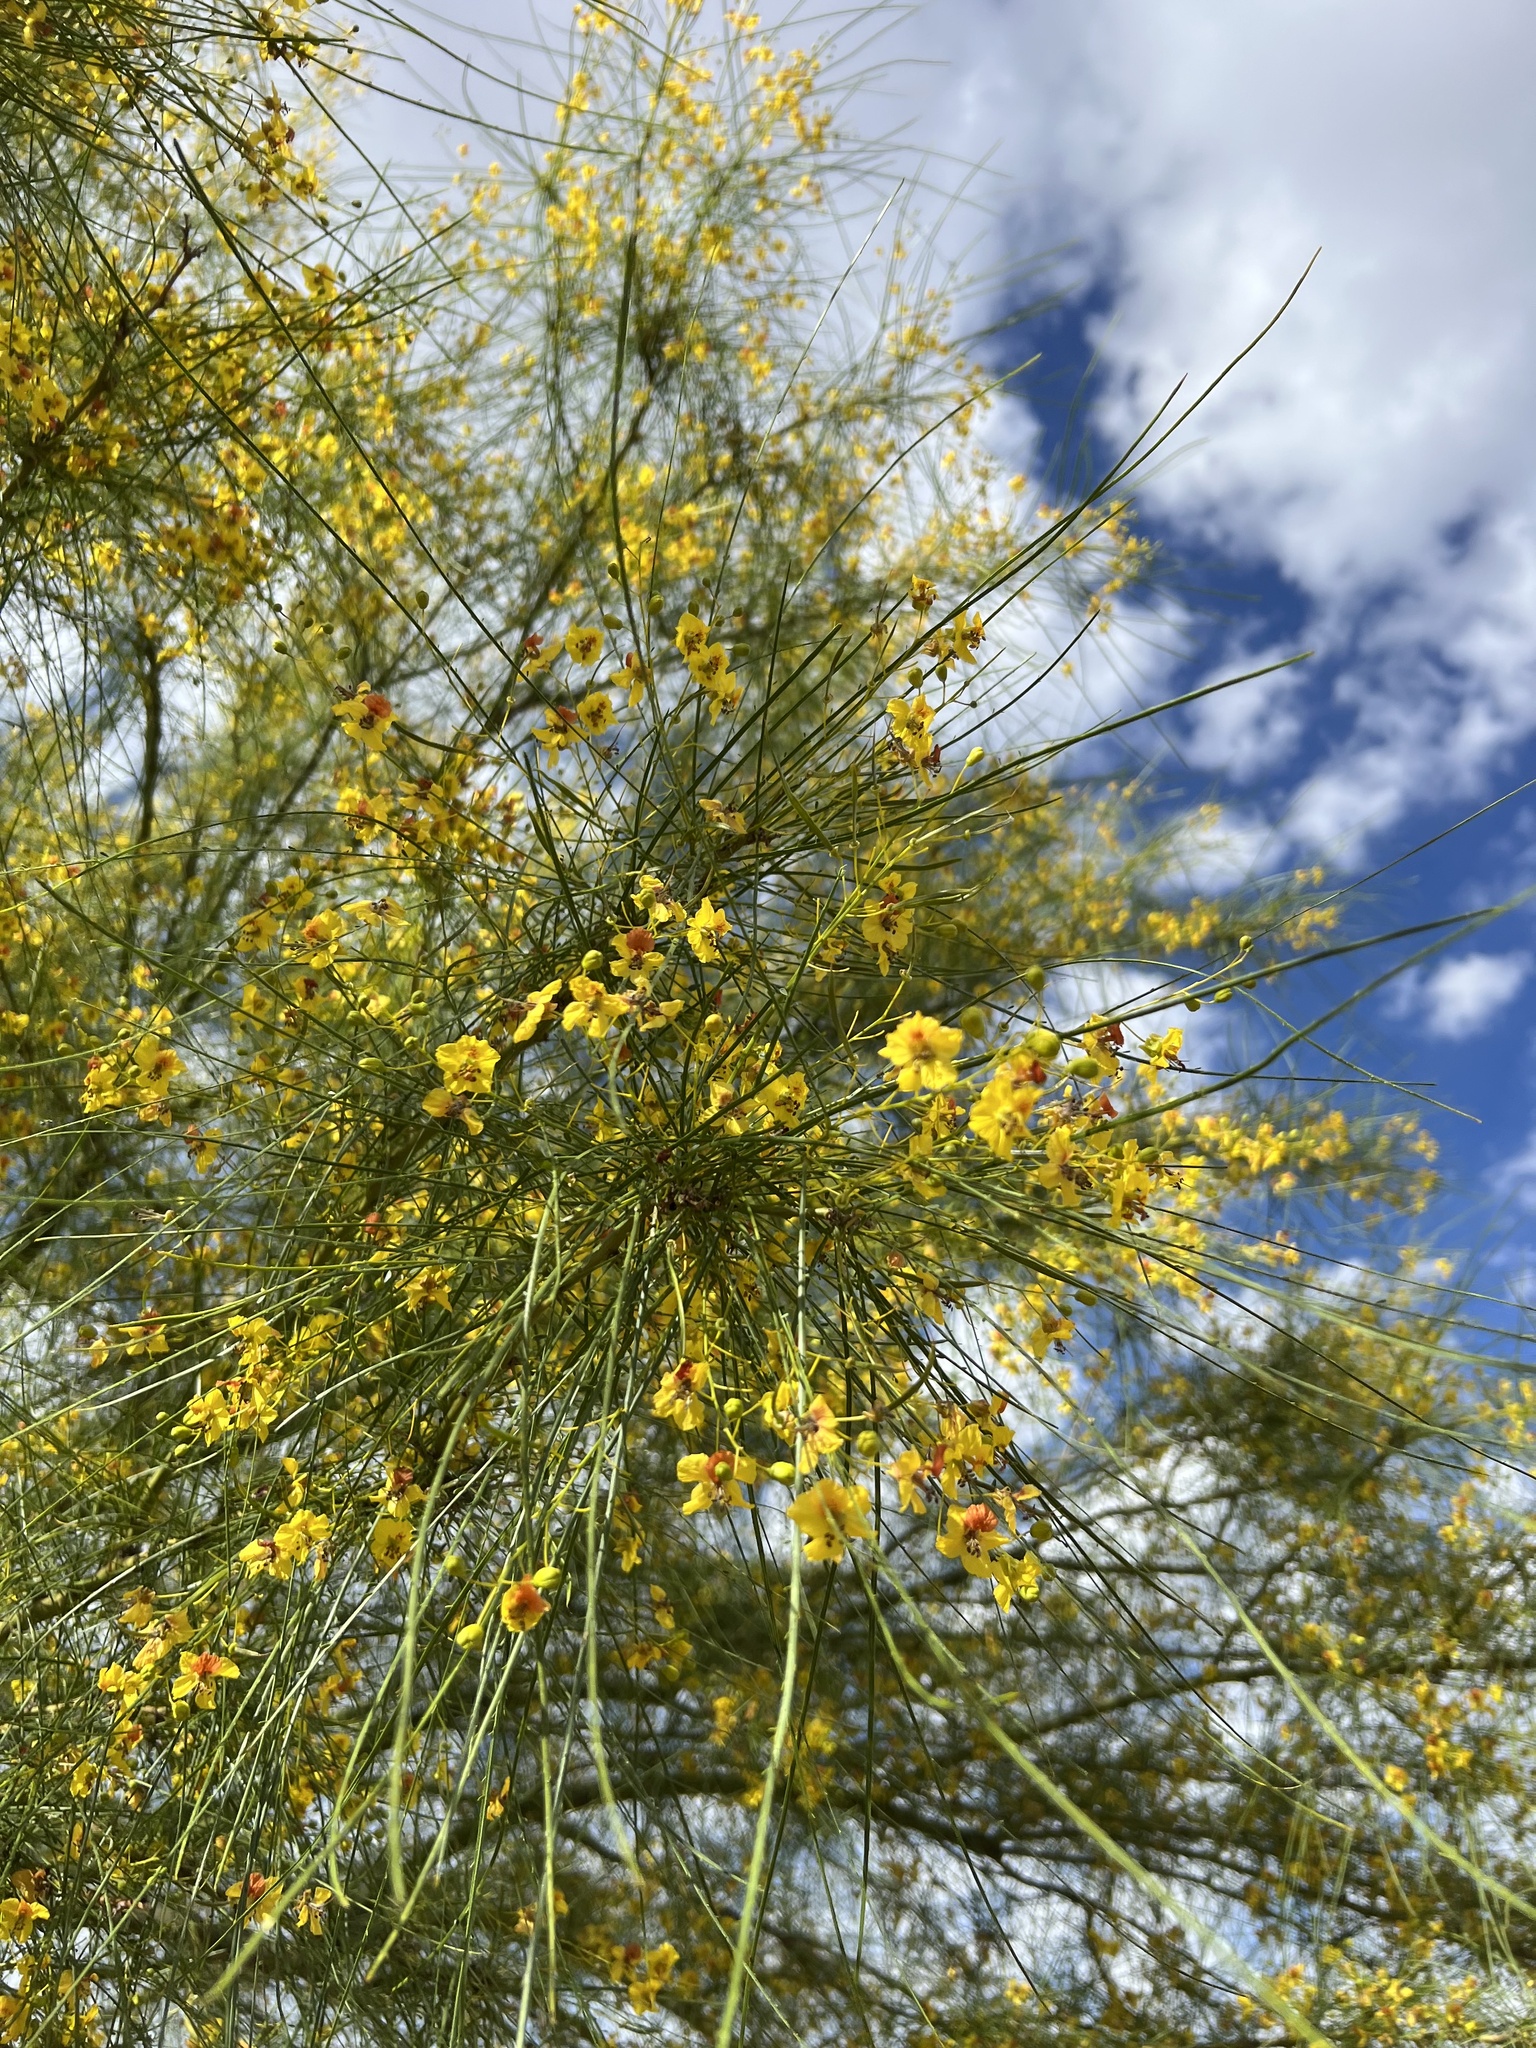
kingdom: Plantae
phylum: Tracheophyta
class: Magnoliopsida
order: Fabales
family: Fabaceae
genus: Parkinsonia
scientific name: Parkinsonia aculeata
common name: Jerusalem thorn
